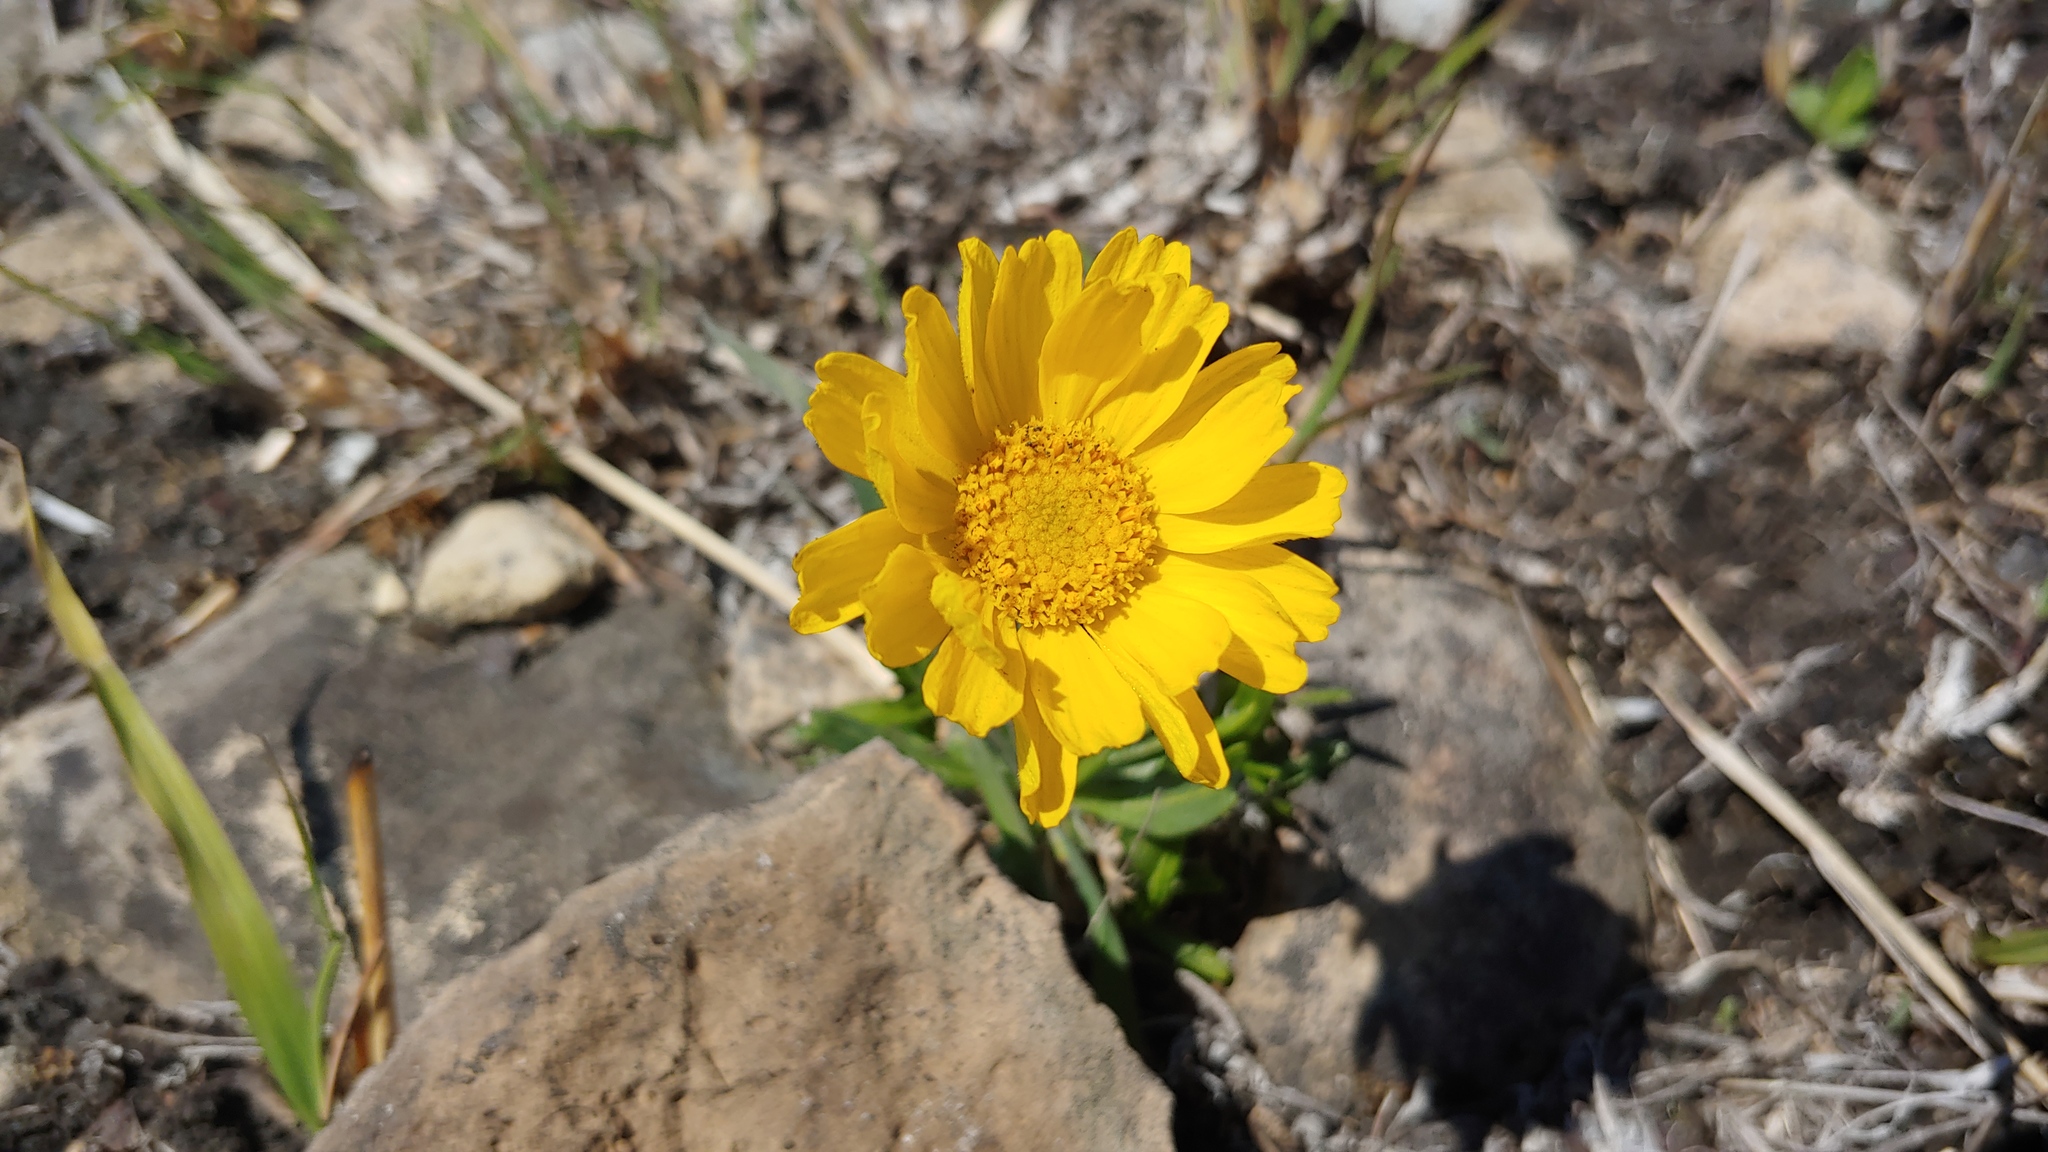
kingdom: Plantae
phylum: Tracheophyta
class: Magnoliopsida
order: Asterales
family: Asteraceae
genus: Tetraneuris
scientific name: Tetraneuris herbacea
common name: Lakeside daisy
